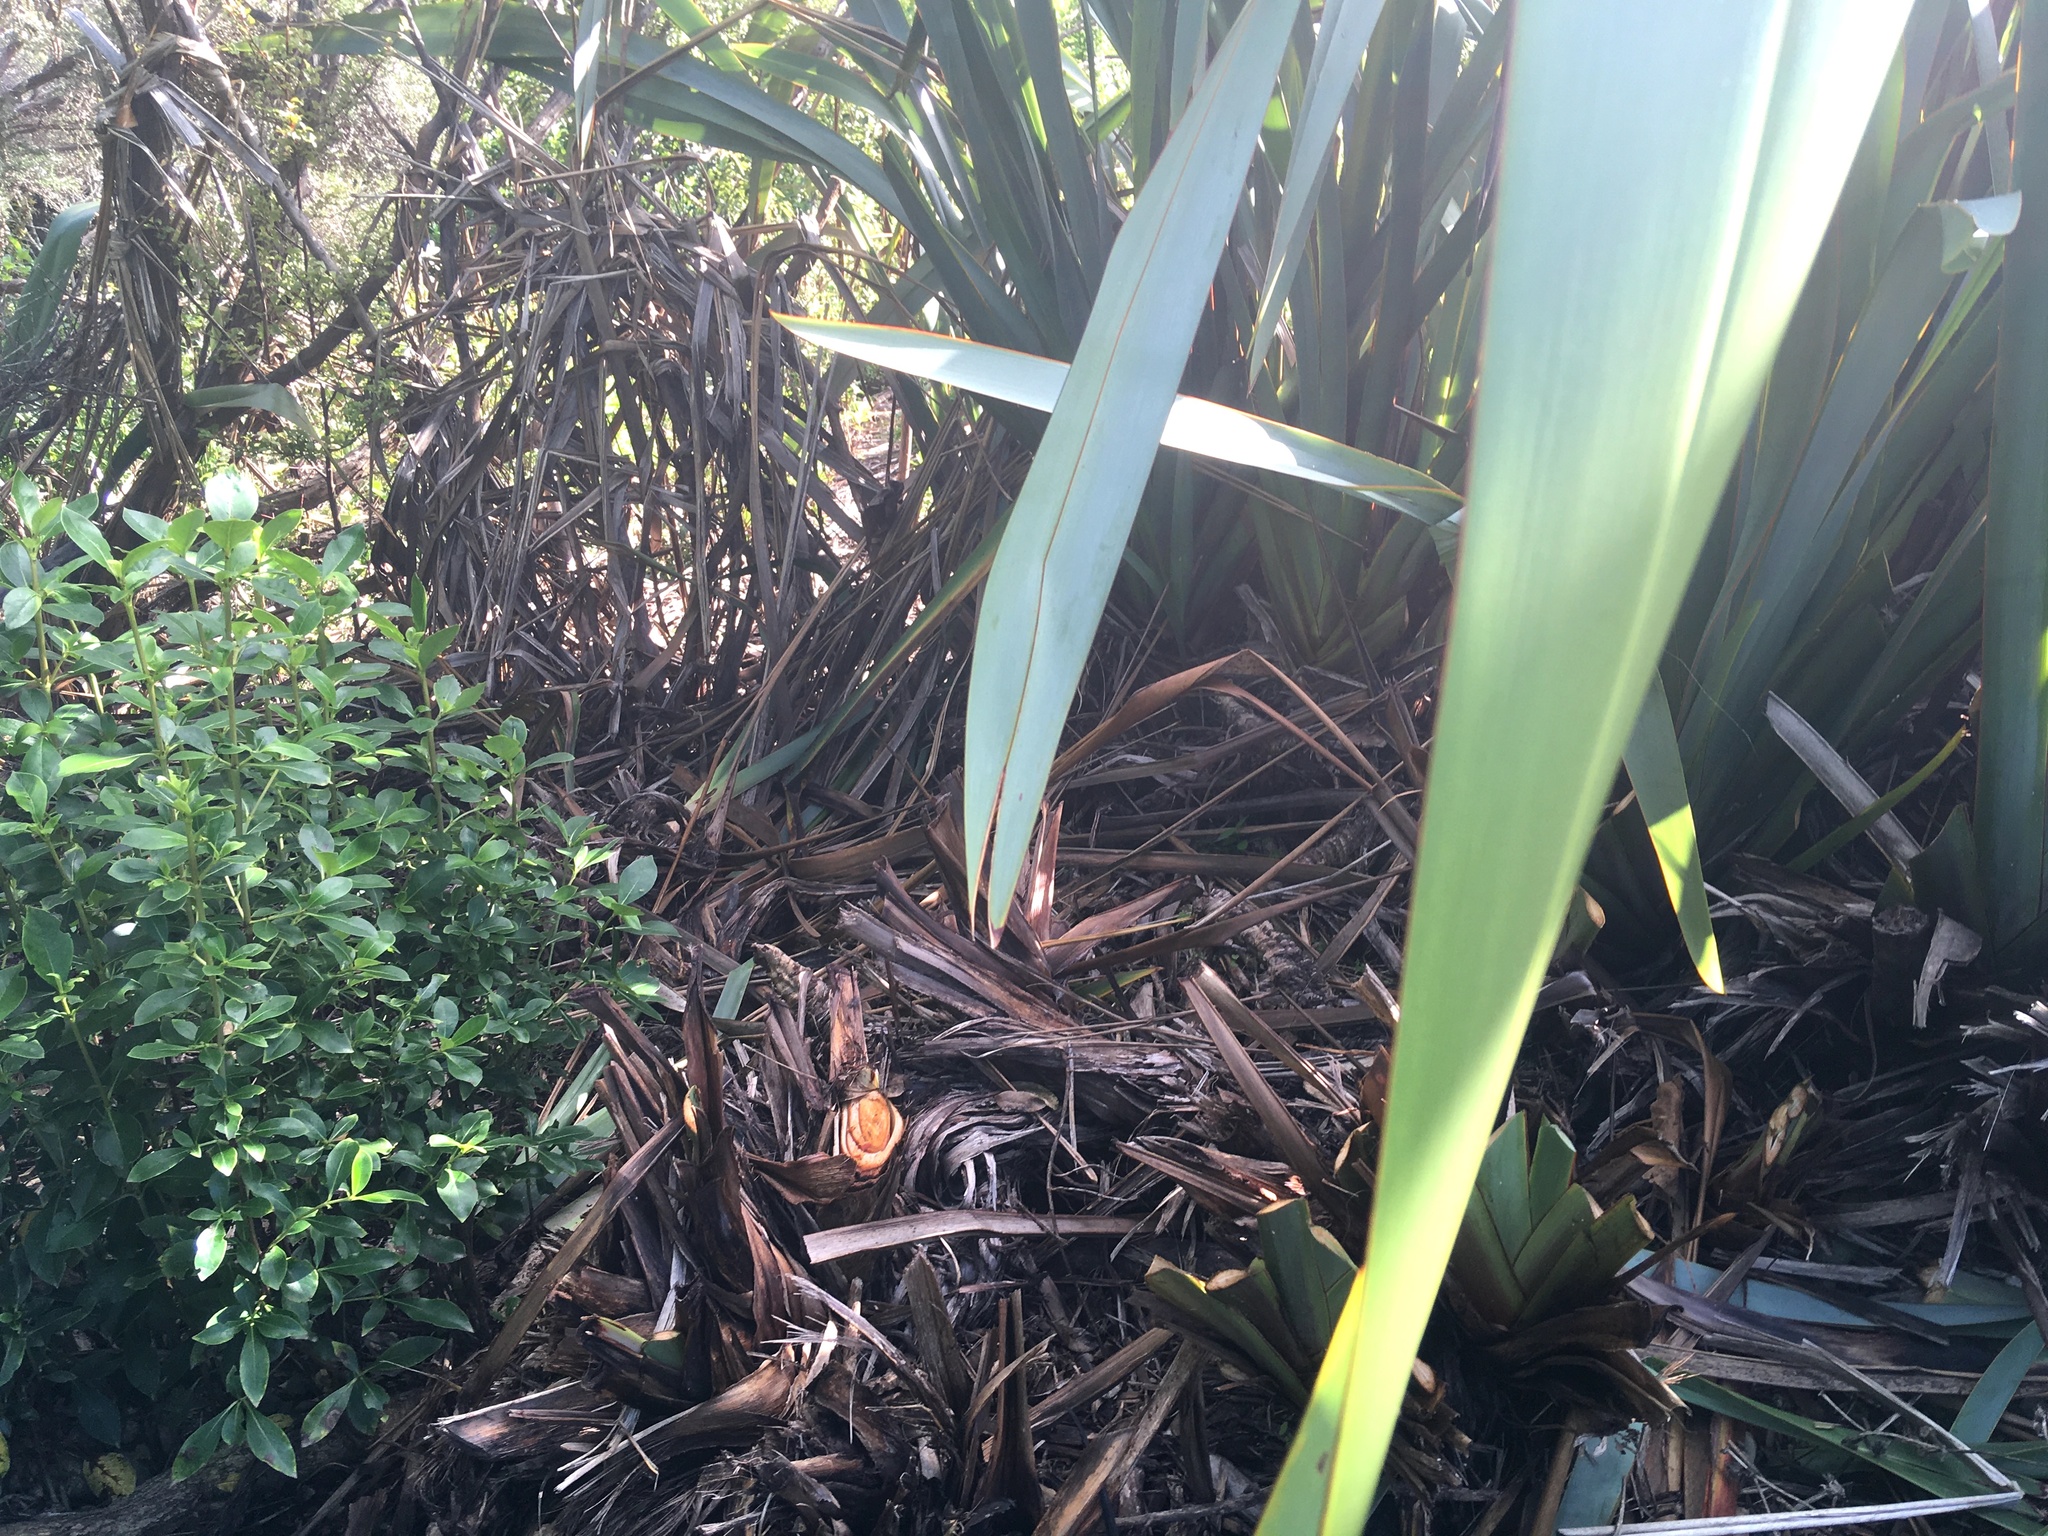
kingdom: Plantae
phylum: Tracheophyta
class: Magnoliopsida
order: Gentianales
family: Rubiaceae
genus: Coprosma
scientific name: Coprosma robusta
